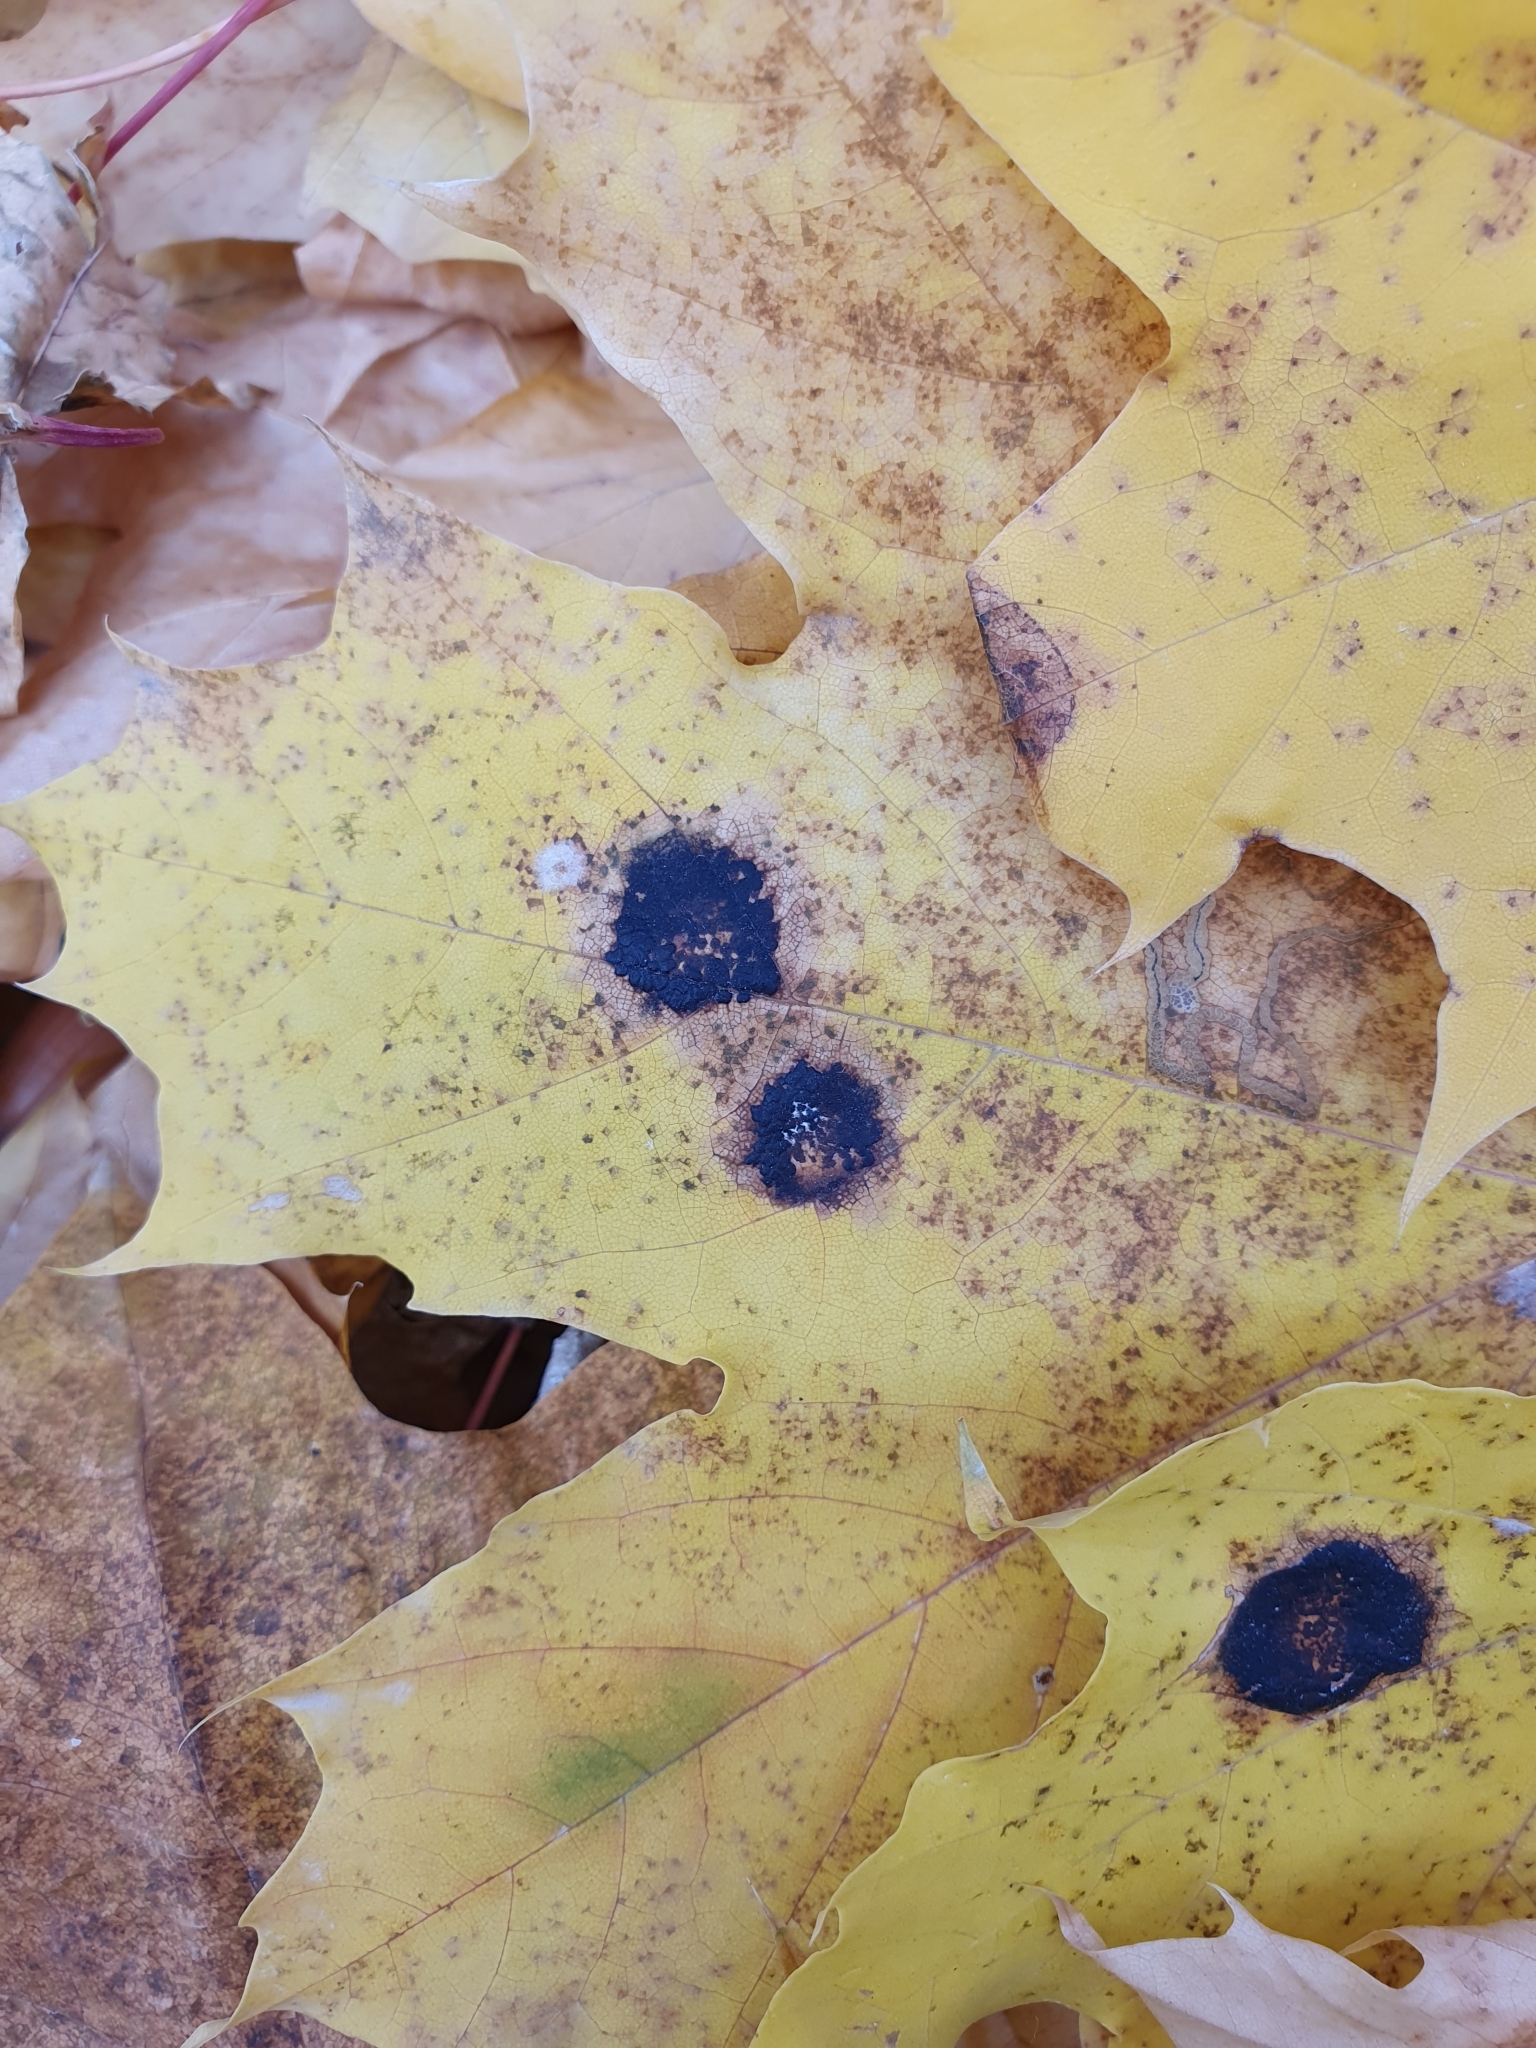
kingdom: Fungi
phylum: Ascomycota
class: Leotiomycetes
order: Rhytismatales
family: Rhytismataceae
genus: Rhytisma
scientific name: Rhytisma acerinum
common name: European tar spot
